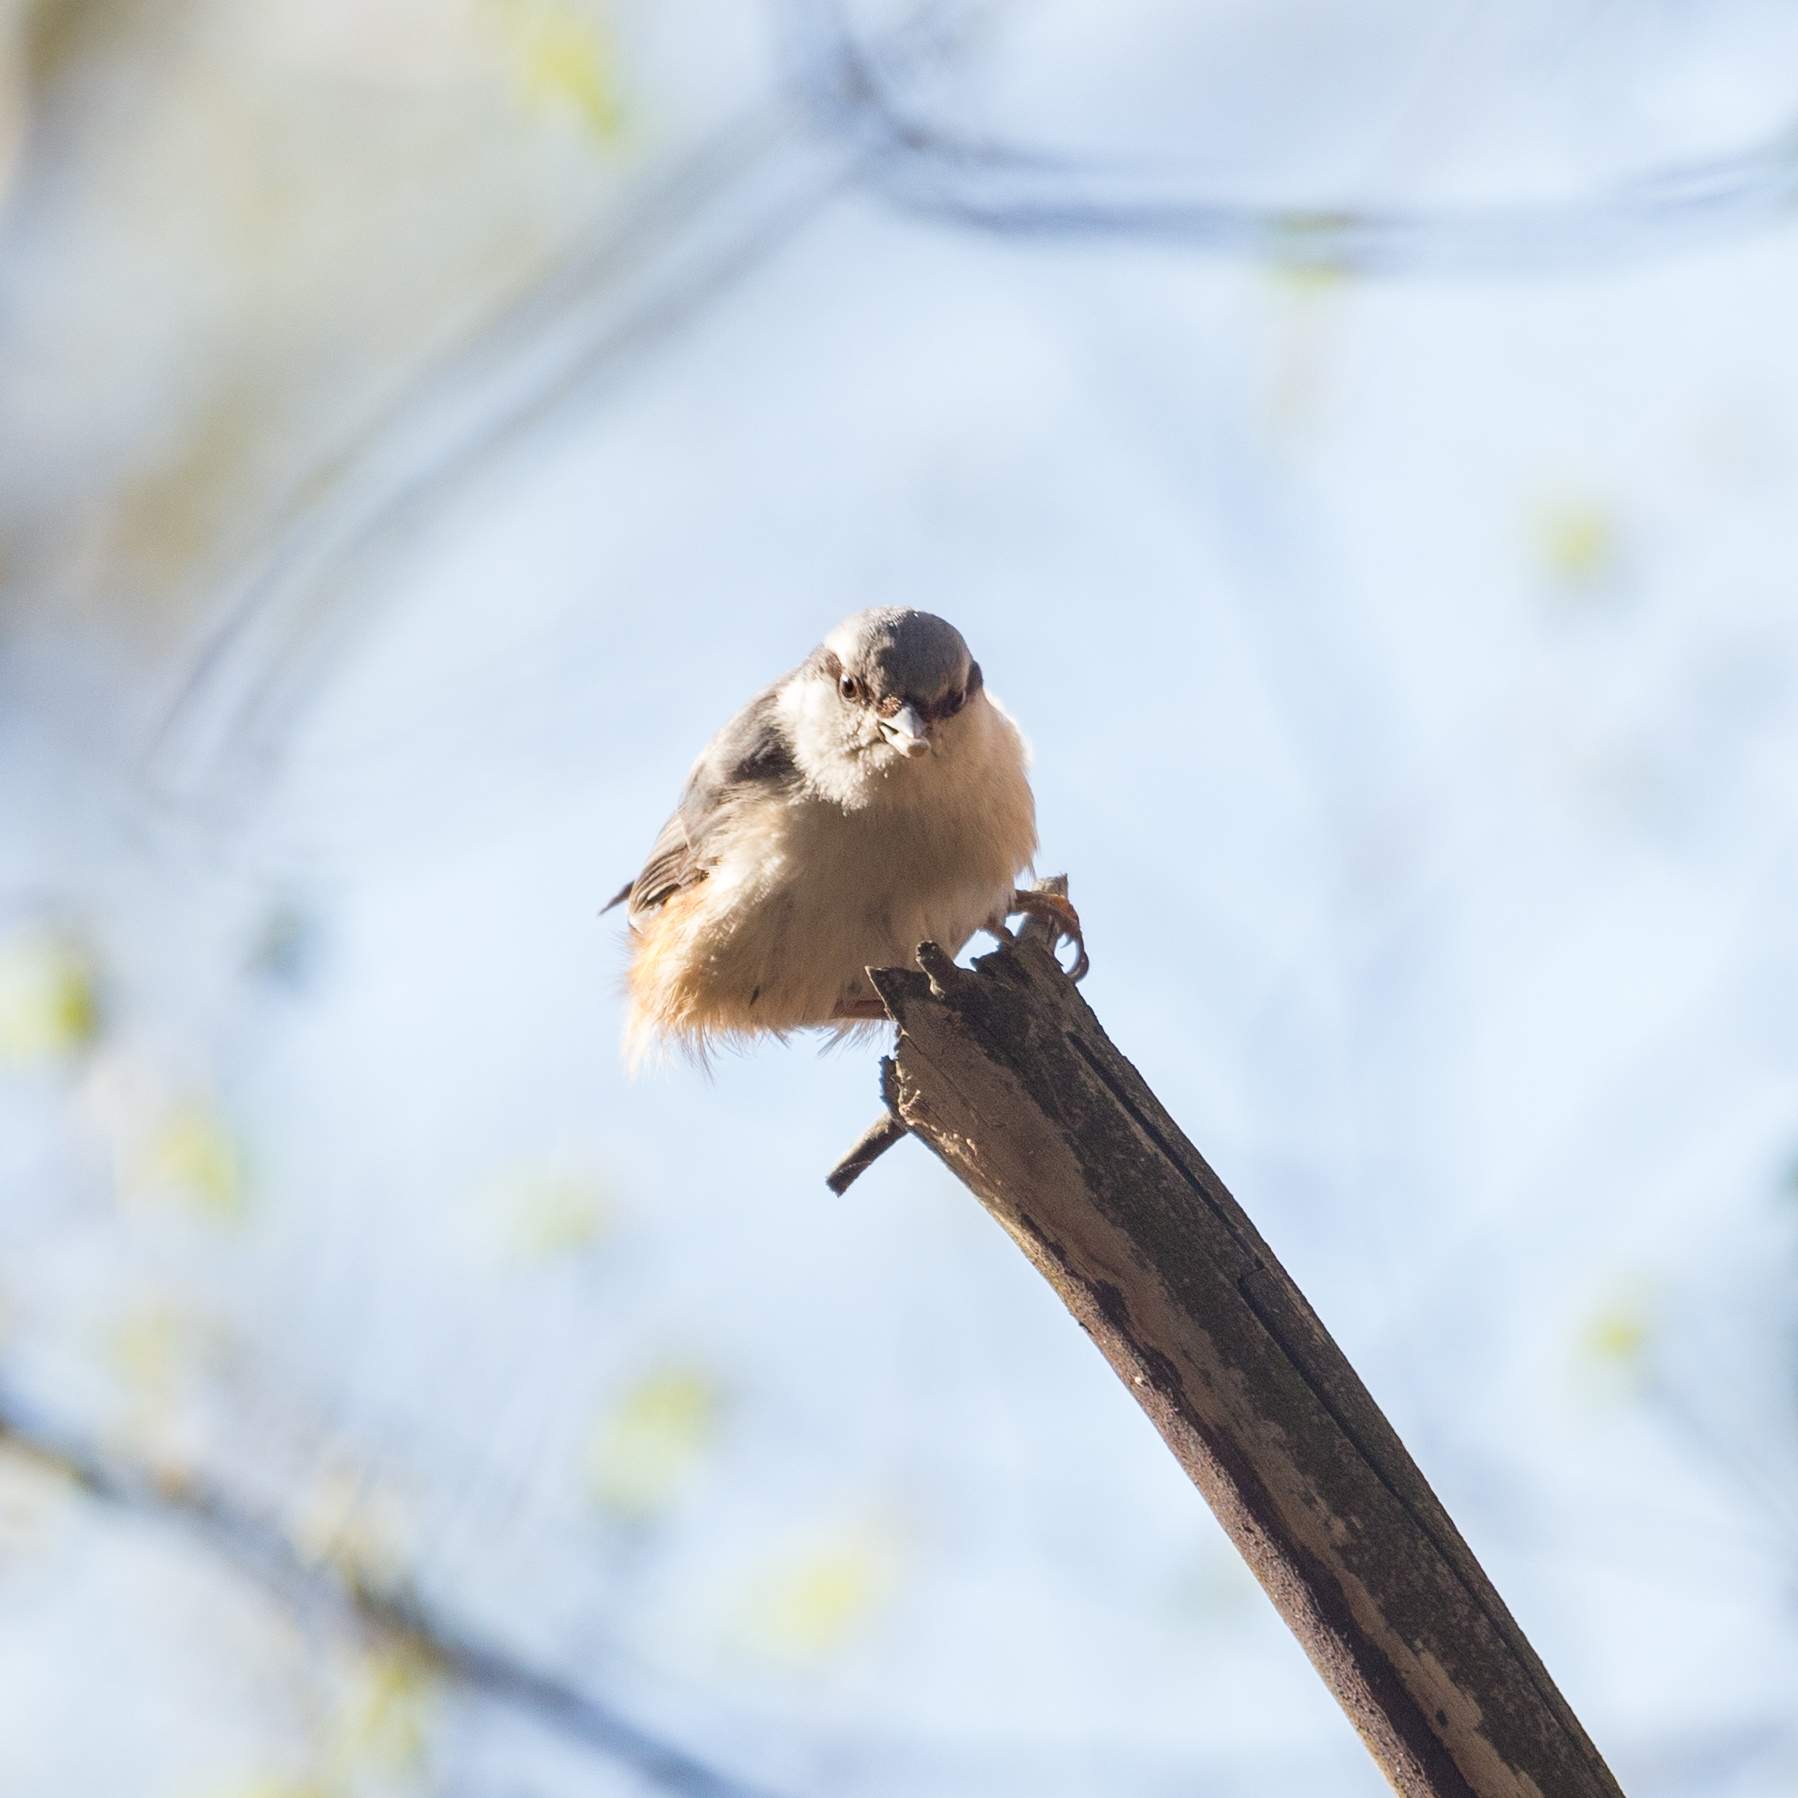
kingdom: Animalia
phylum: Chordata
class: Aves
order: Passeriformes
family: Sittidae
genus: Sitta
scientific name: Sitta europaea
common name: Eurasian nuthatch
